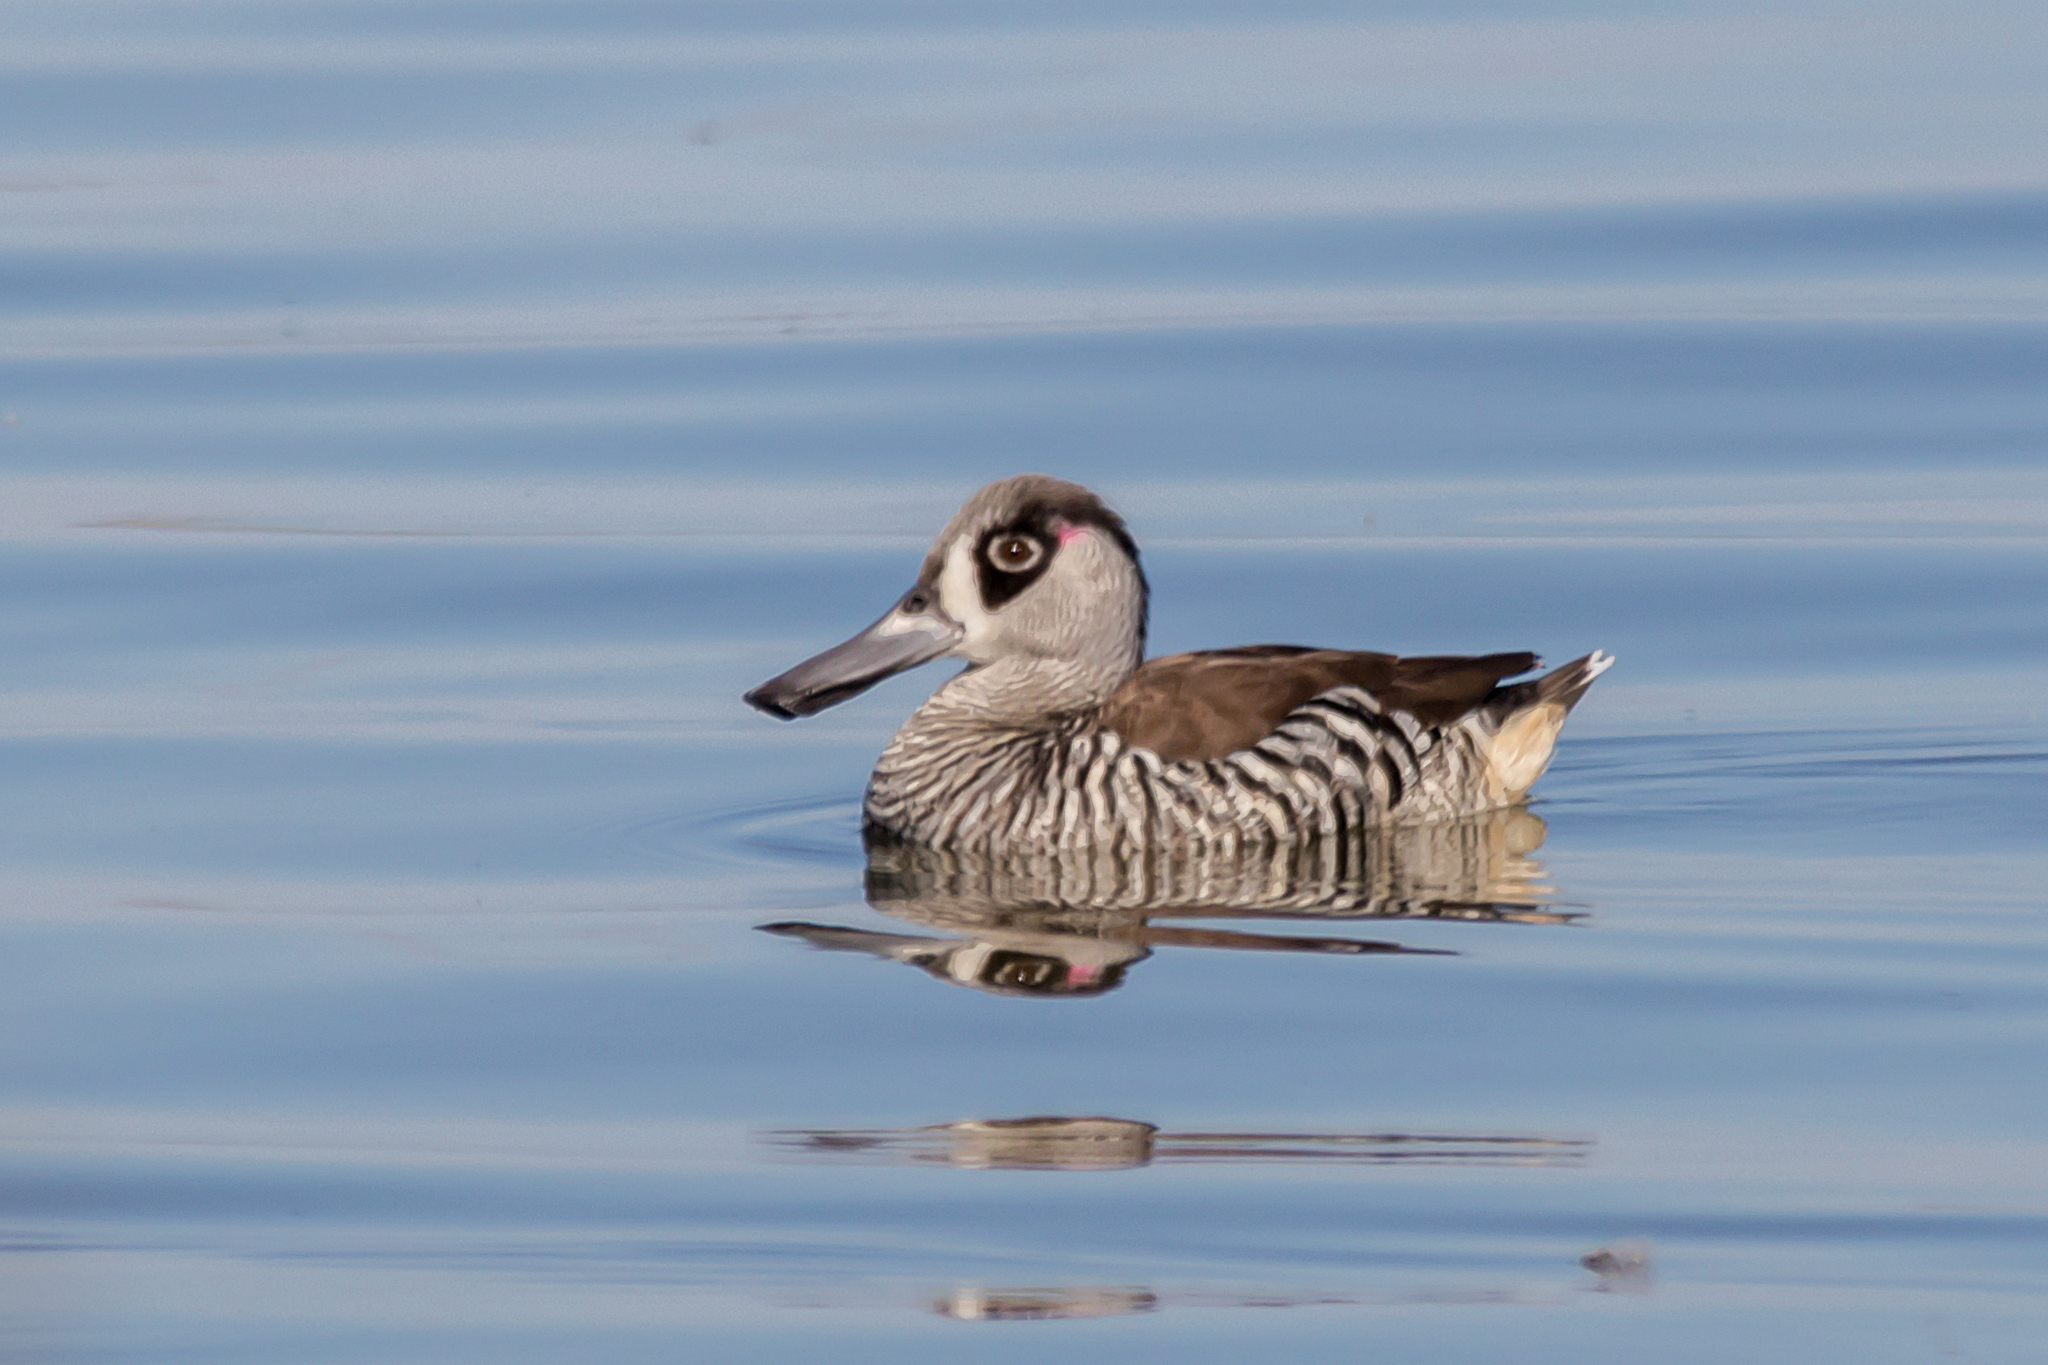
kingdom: Animalia
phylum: Chordata
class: Aves
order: Anseriformes
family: Anatidae
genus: Malacorhynchus
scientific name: Malacorhynchus membranaceus
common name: Pink-eared duck
